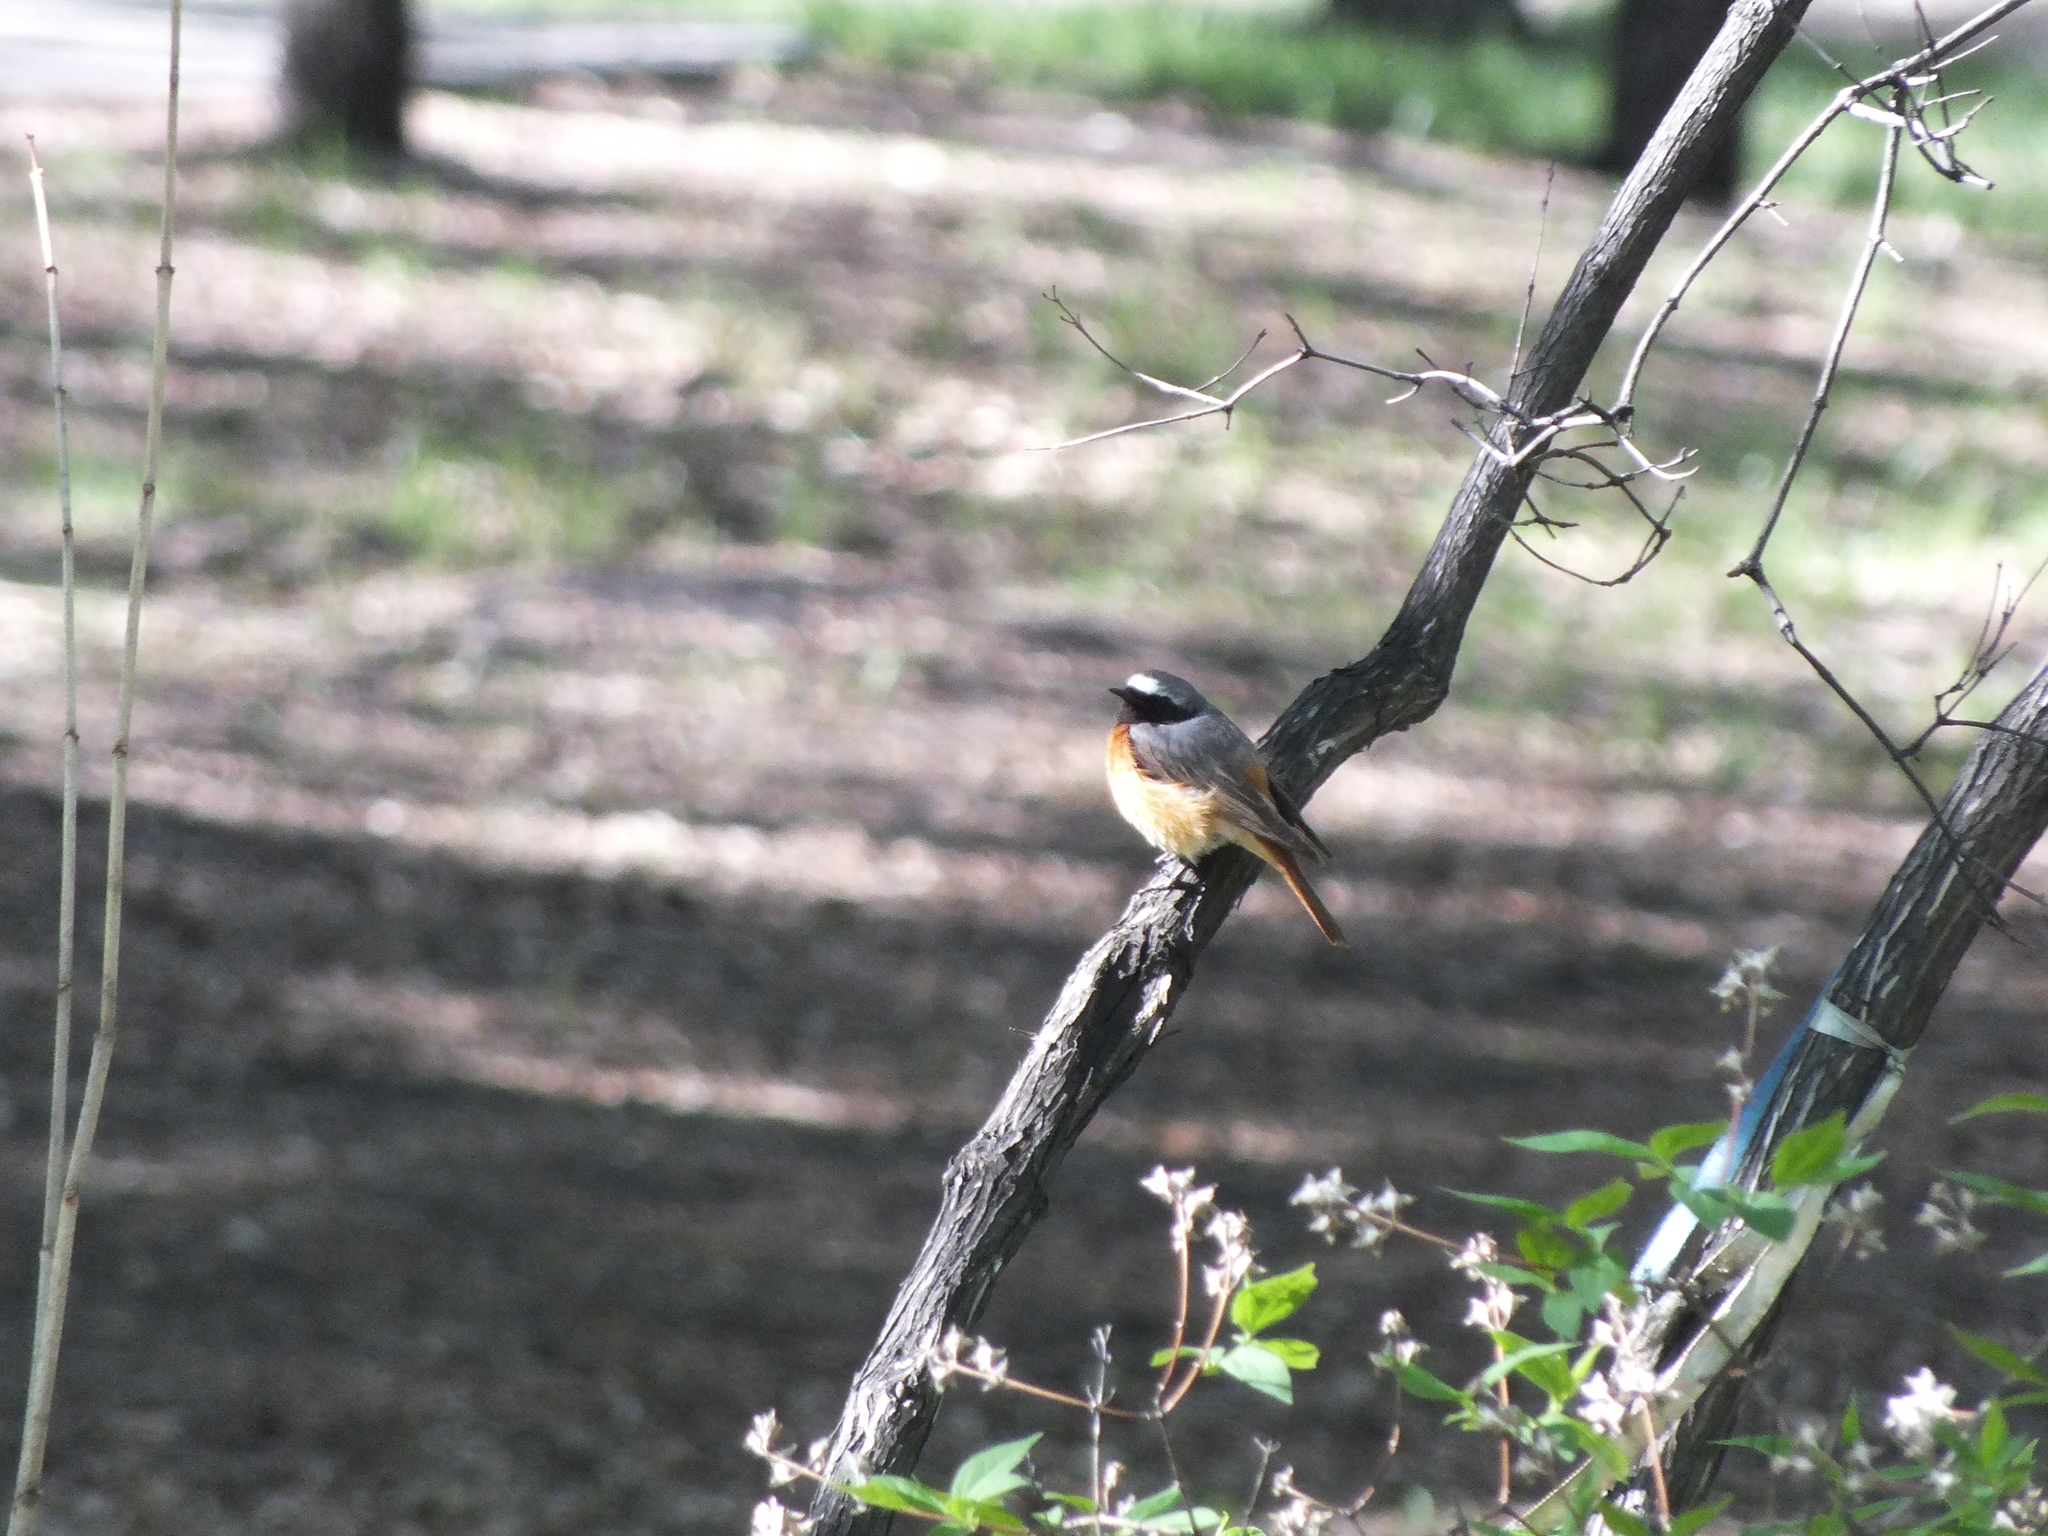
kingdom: Animalia
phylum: Chordata
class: Aves
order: Passeriformes
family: Muscicapidae
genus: Phoenicurus
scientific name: Phoenicurus phoenicurus
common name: Common redstart
